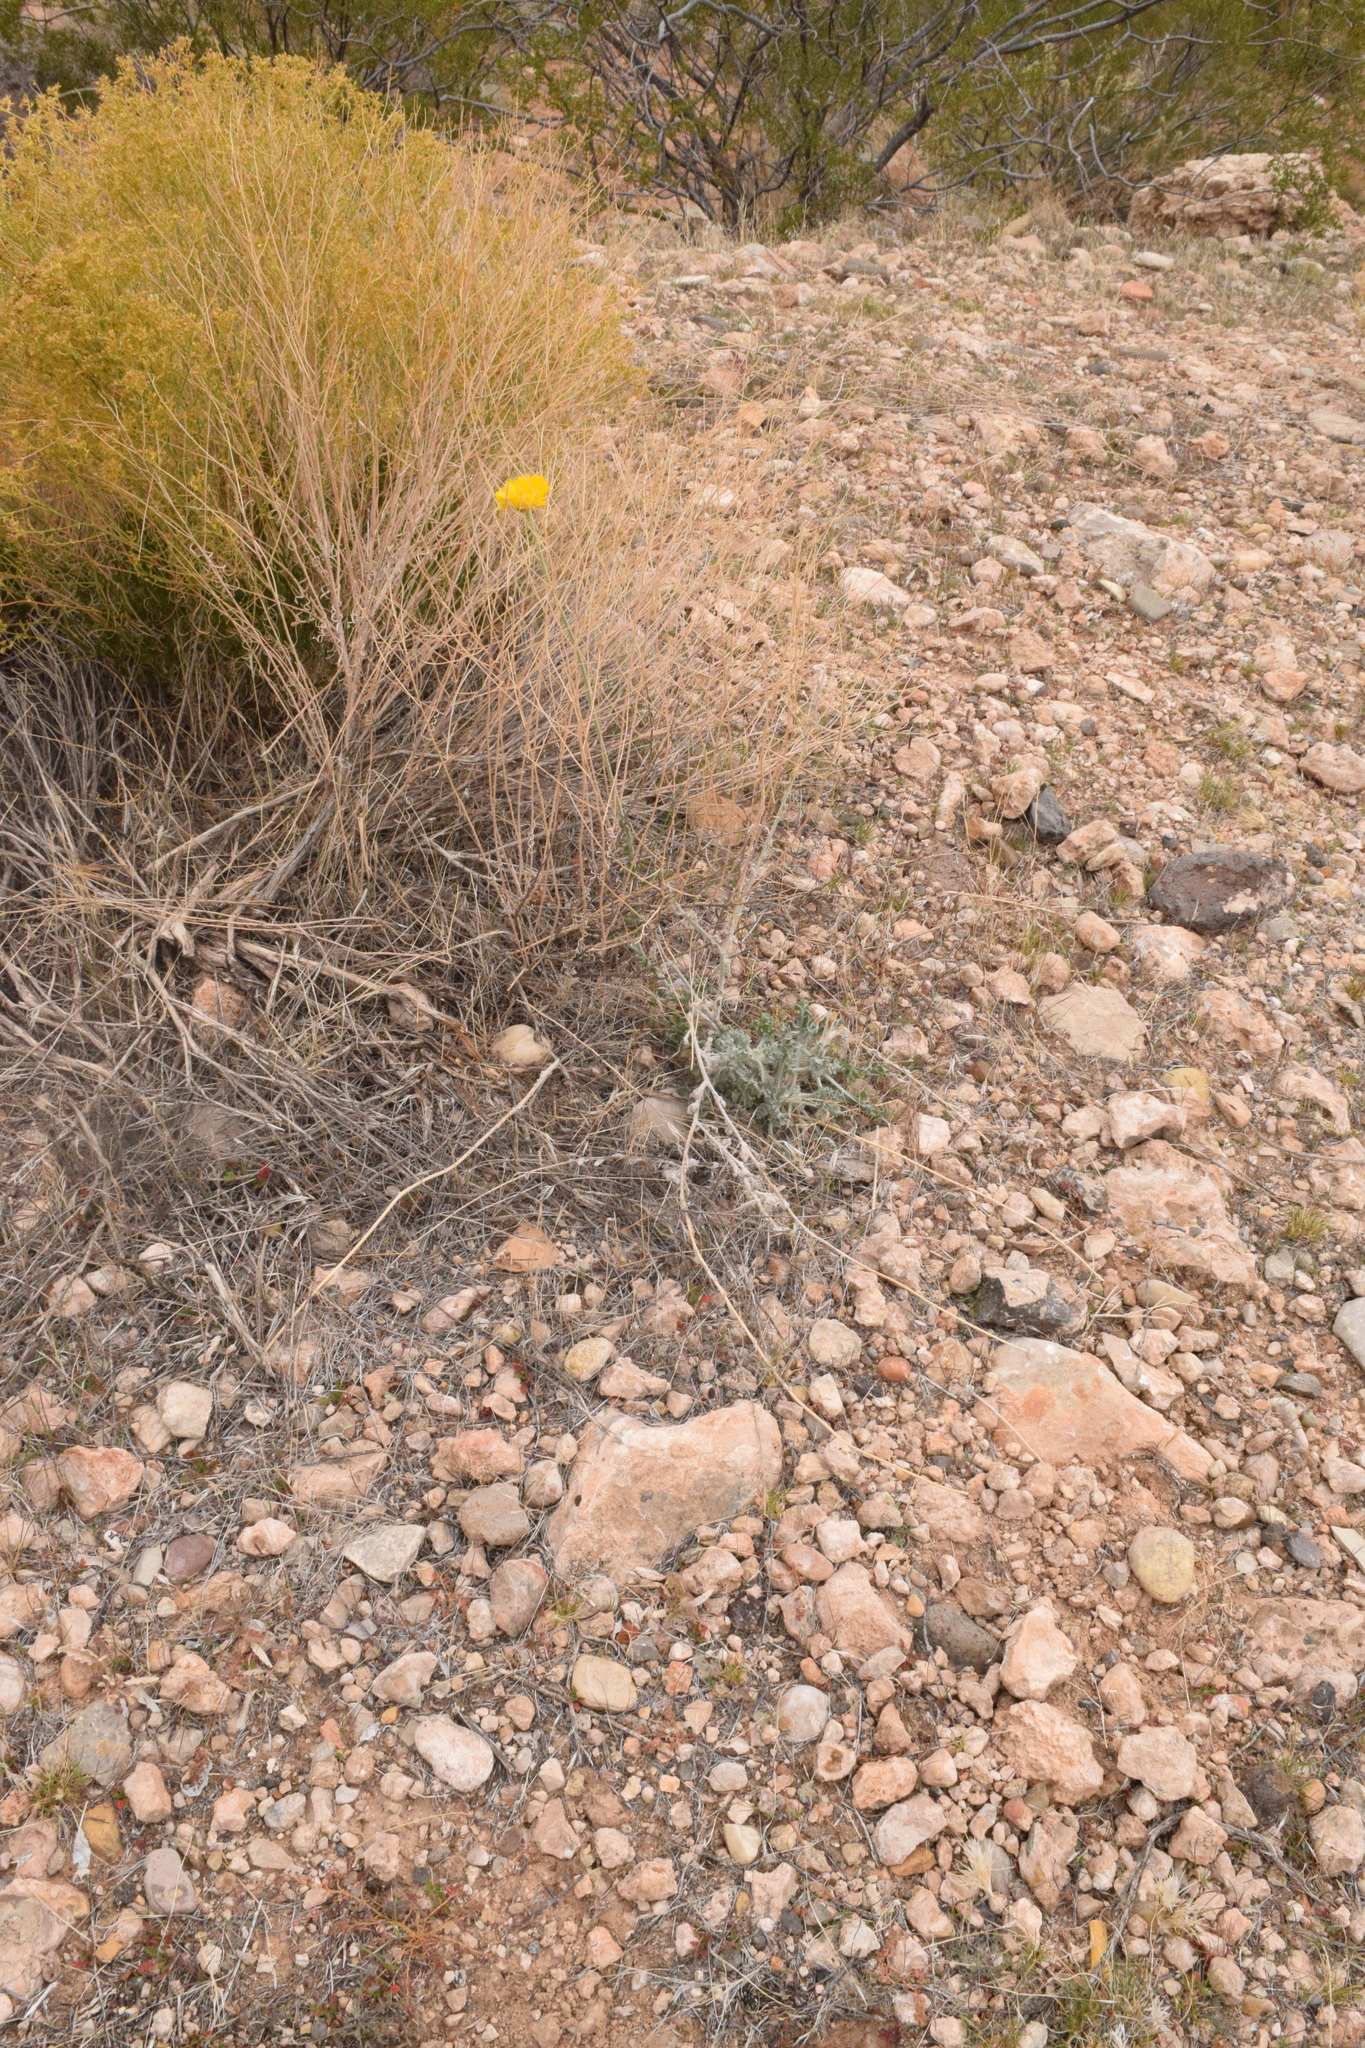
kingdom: Plantae
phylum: Tracheophyta
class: Magnoliopsida
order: Asterales
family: Asteraceae
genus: Baileya
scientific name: Baileya multiradiata
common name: Desert-marigold
